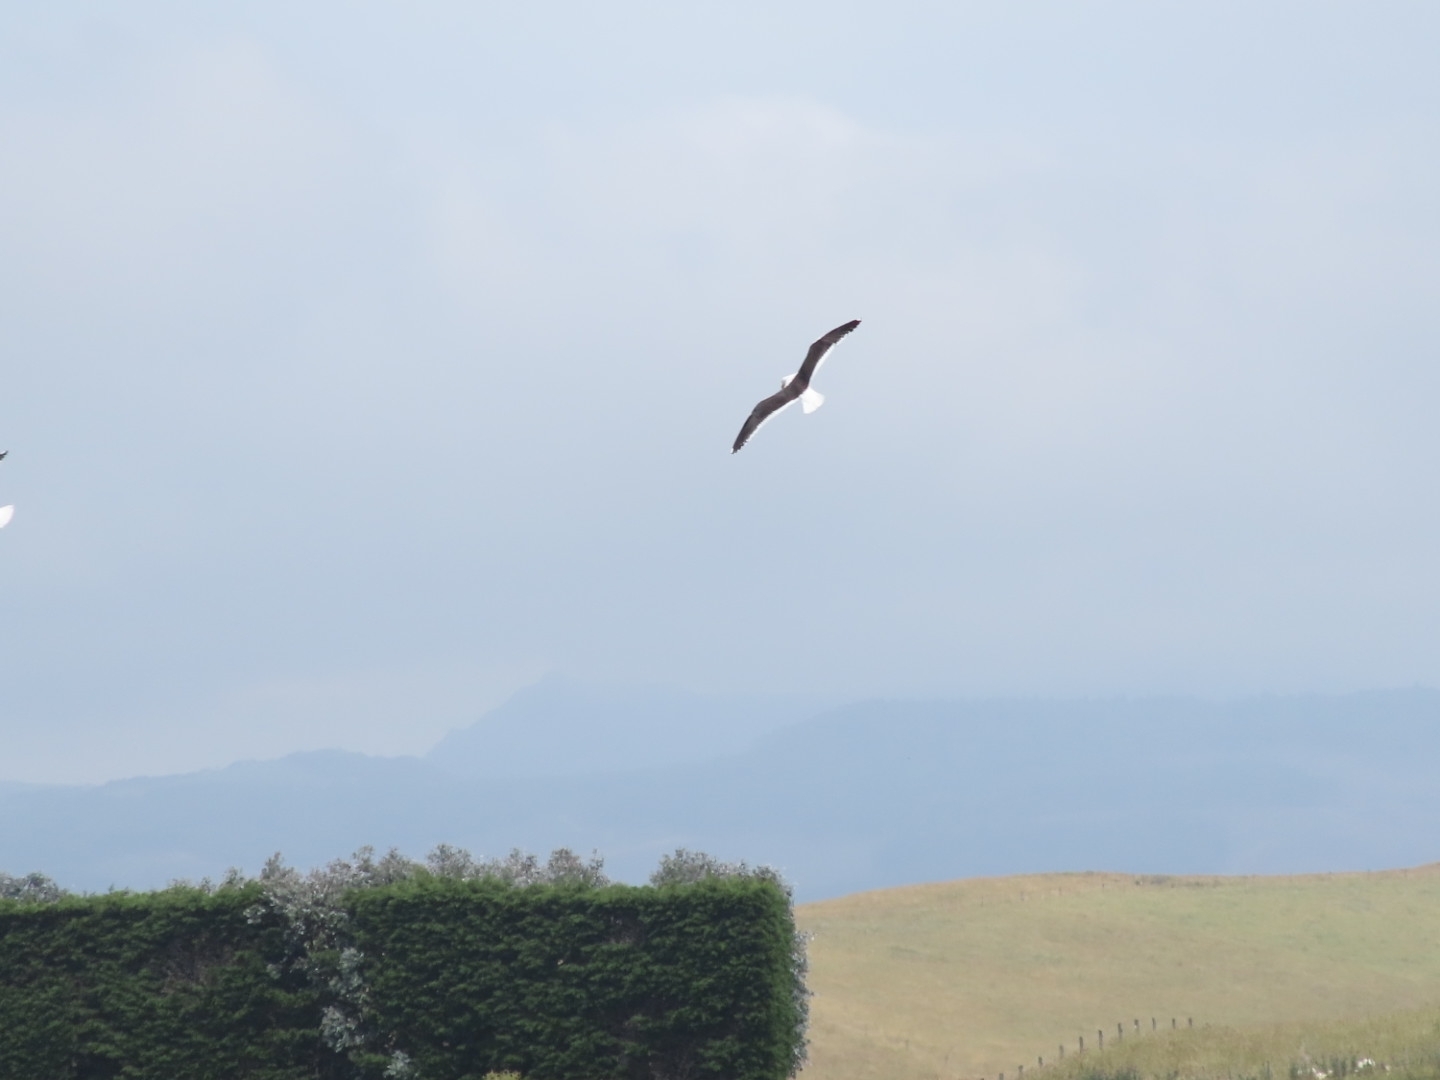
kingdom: Animalia
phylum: Chordata
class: Aves
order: Charadriiformes
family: Laridae
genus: Larus
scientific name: Larus dominicanus
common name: Kelp gull
